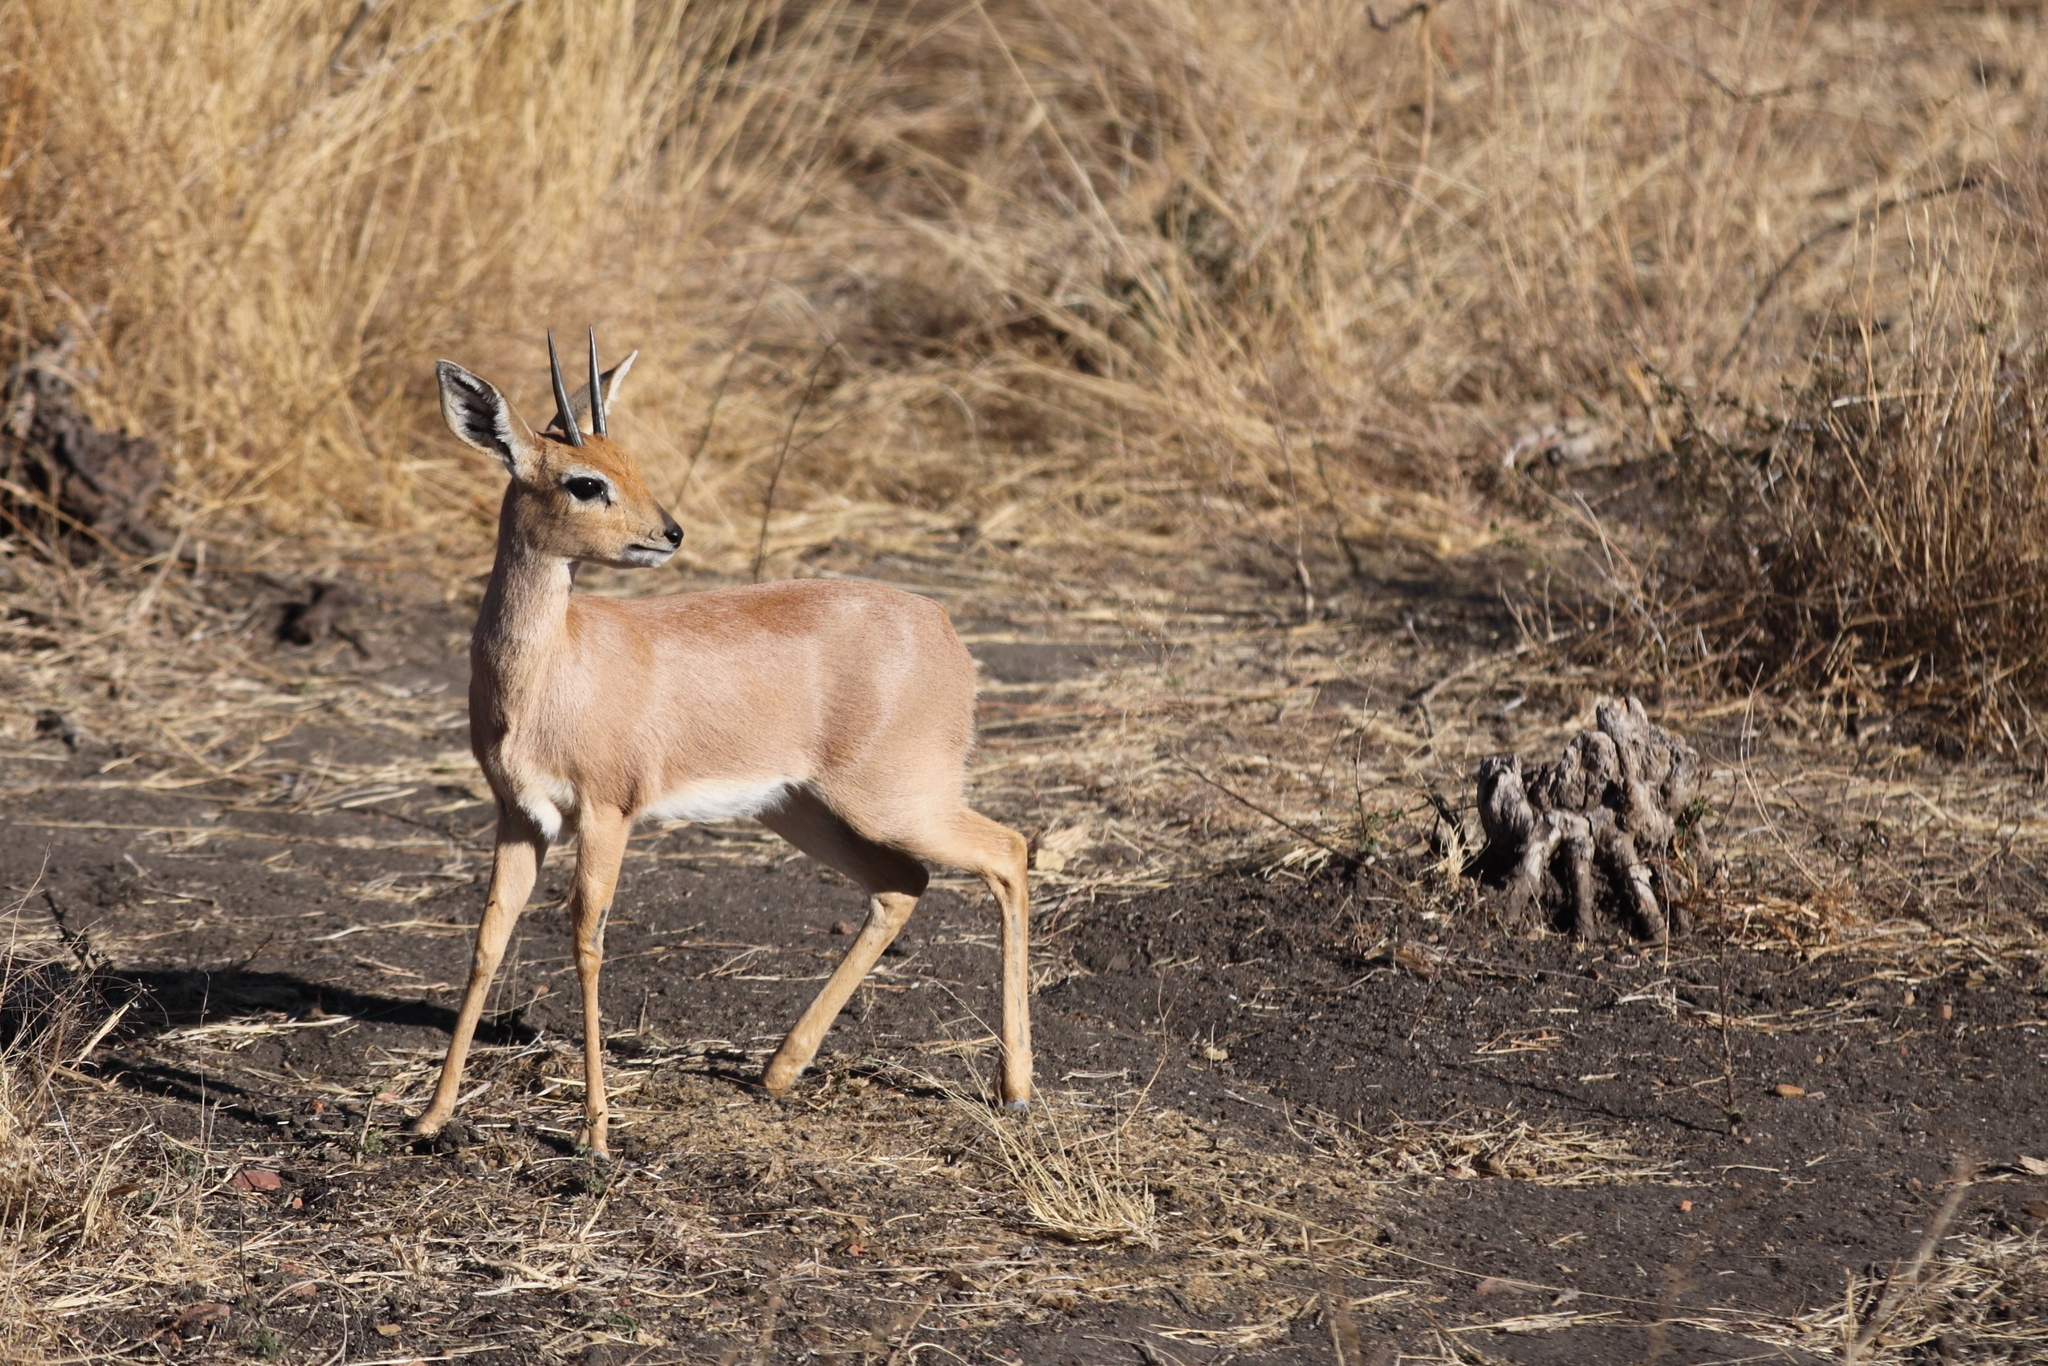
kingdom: Animalia
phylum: Chordata
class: Mammalia
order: Artiodactyla
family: Bovidae
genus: Raphicerus
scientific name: Raphicerus campestris
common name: Steenbok
